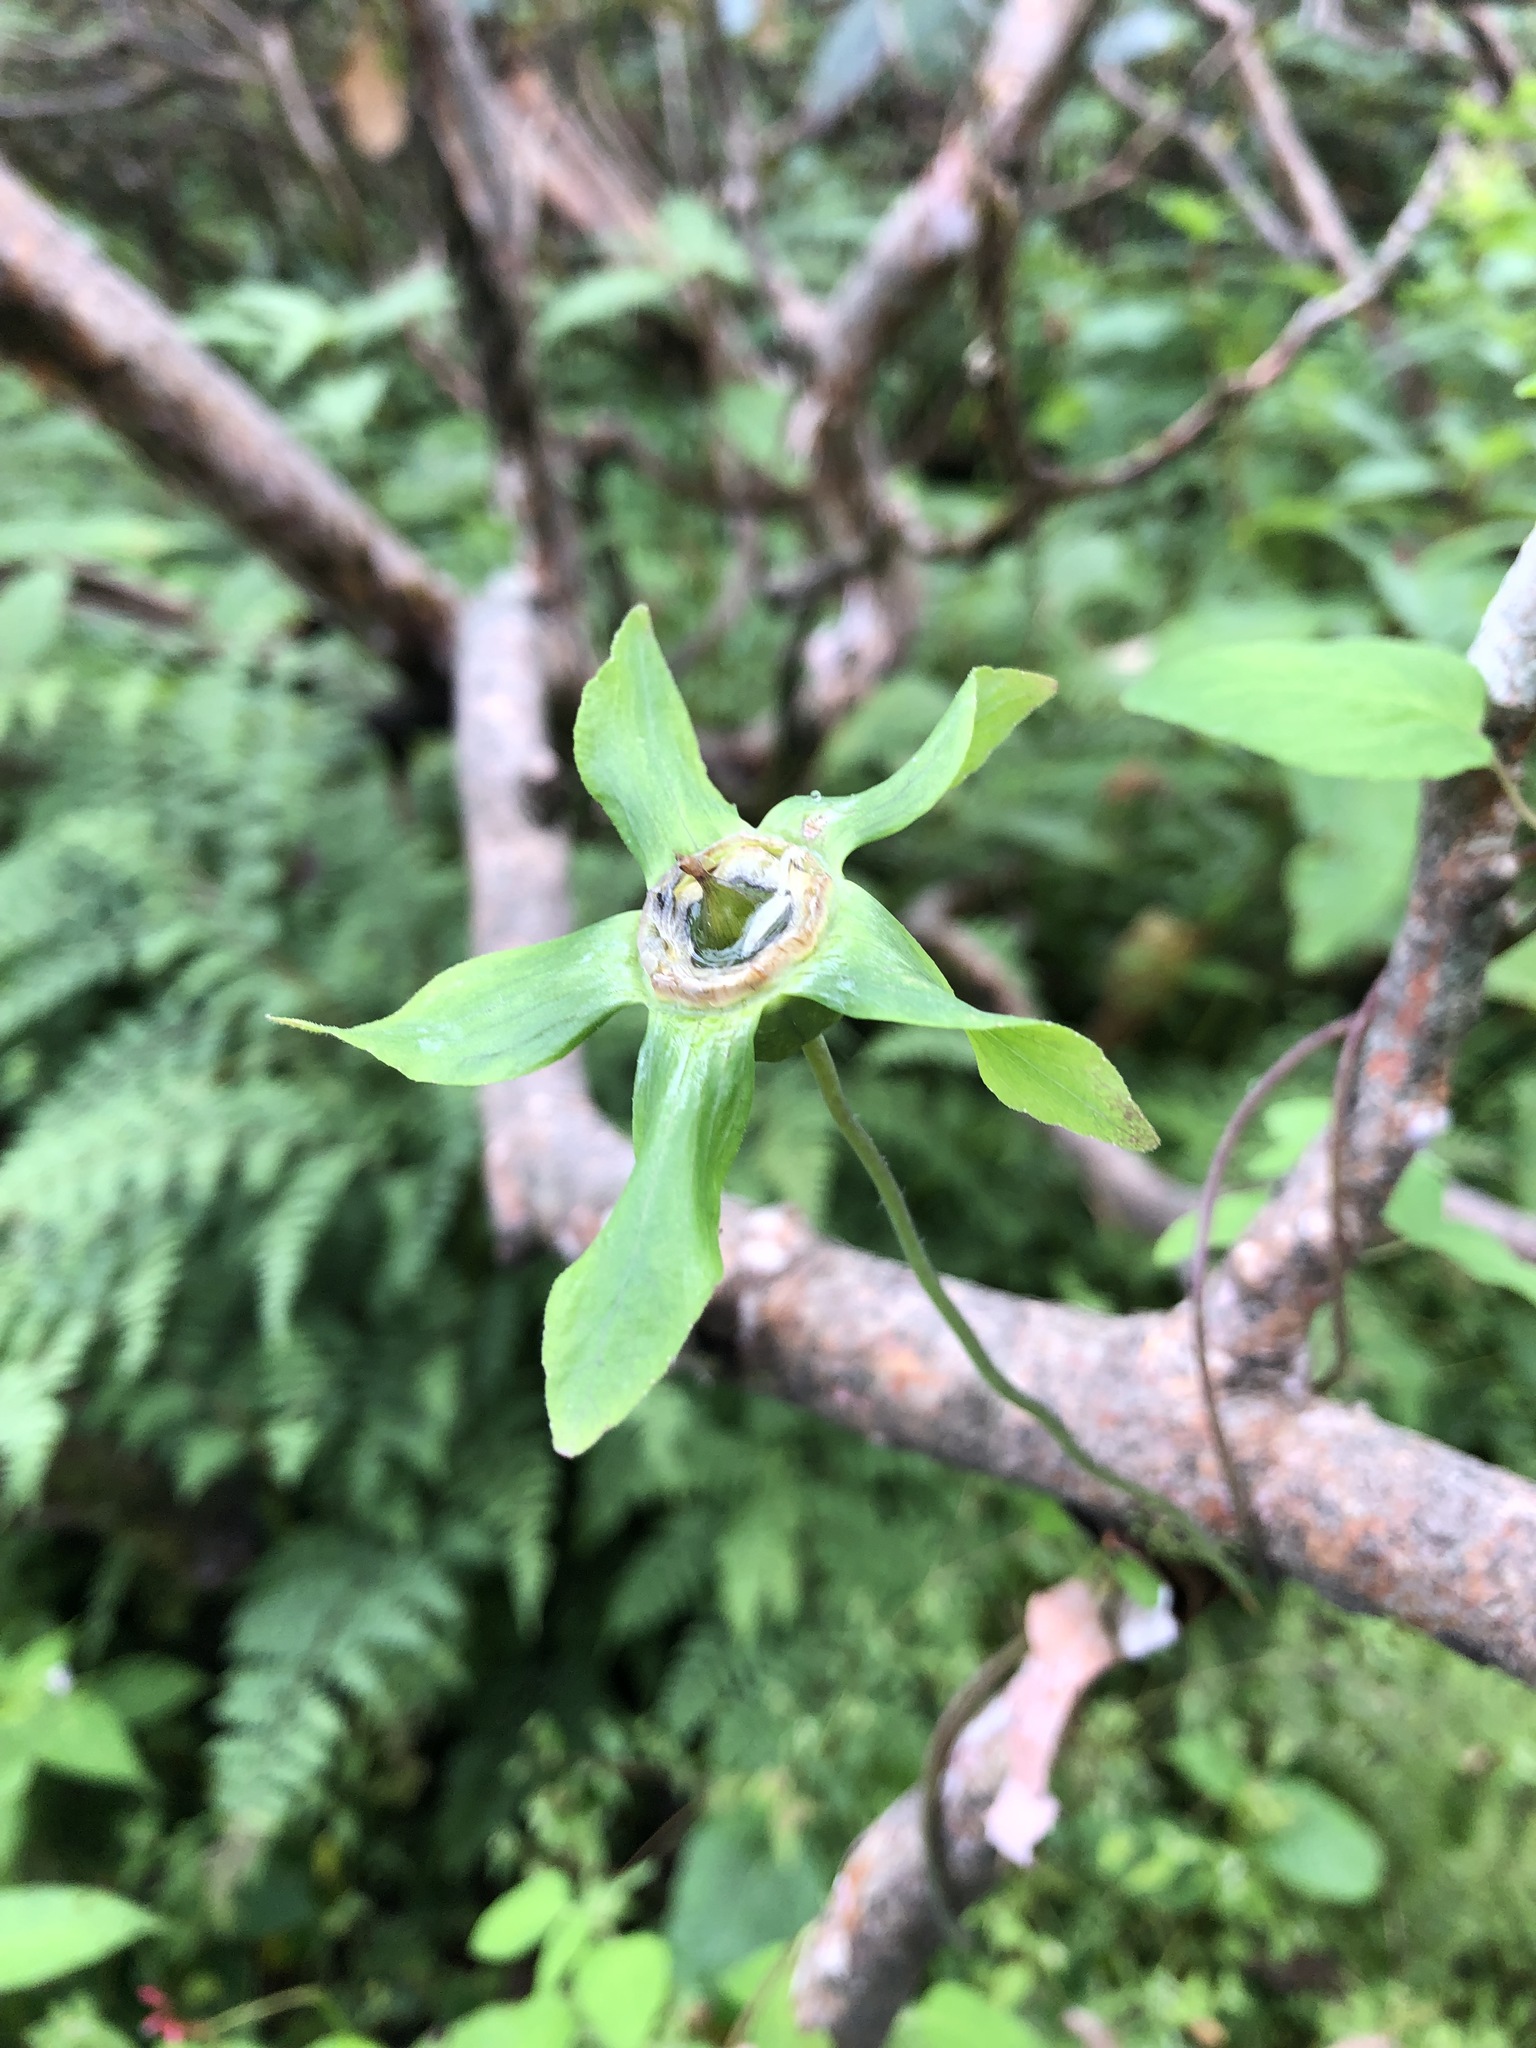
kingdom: Plantae
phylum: Tracheophyta
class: Magnoliopsida
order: Asterales
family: Campanulaceae
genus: Codonopsis
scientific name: Codonopsis rotundifolia
